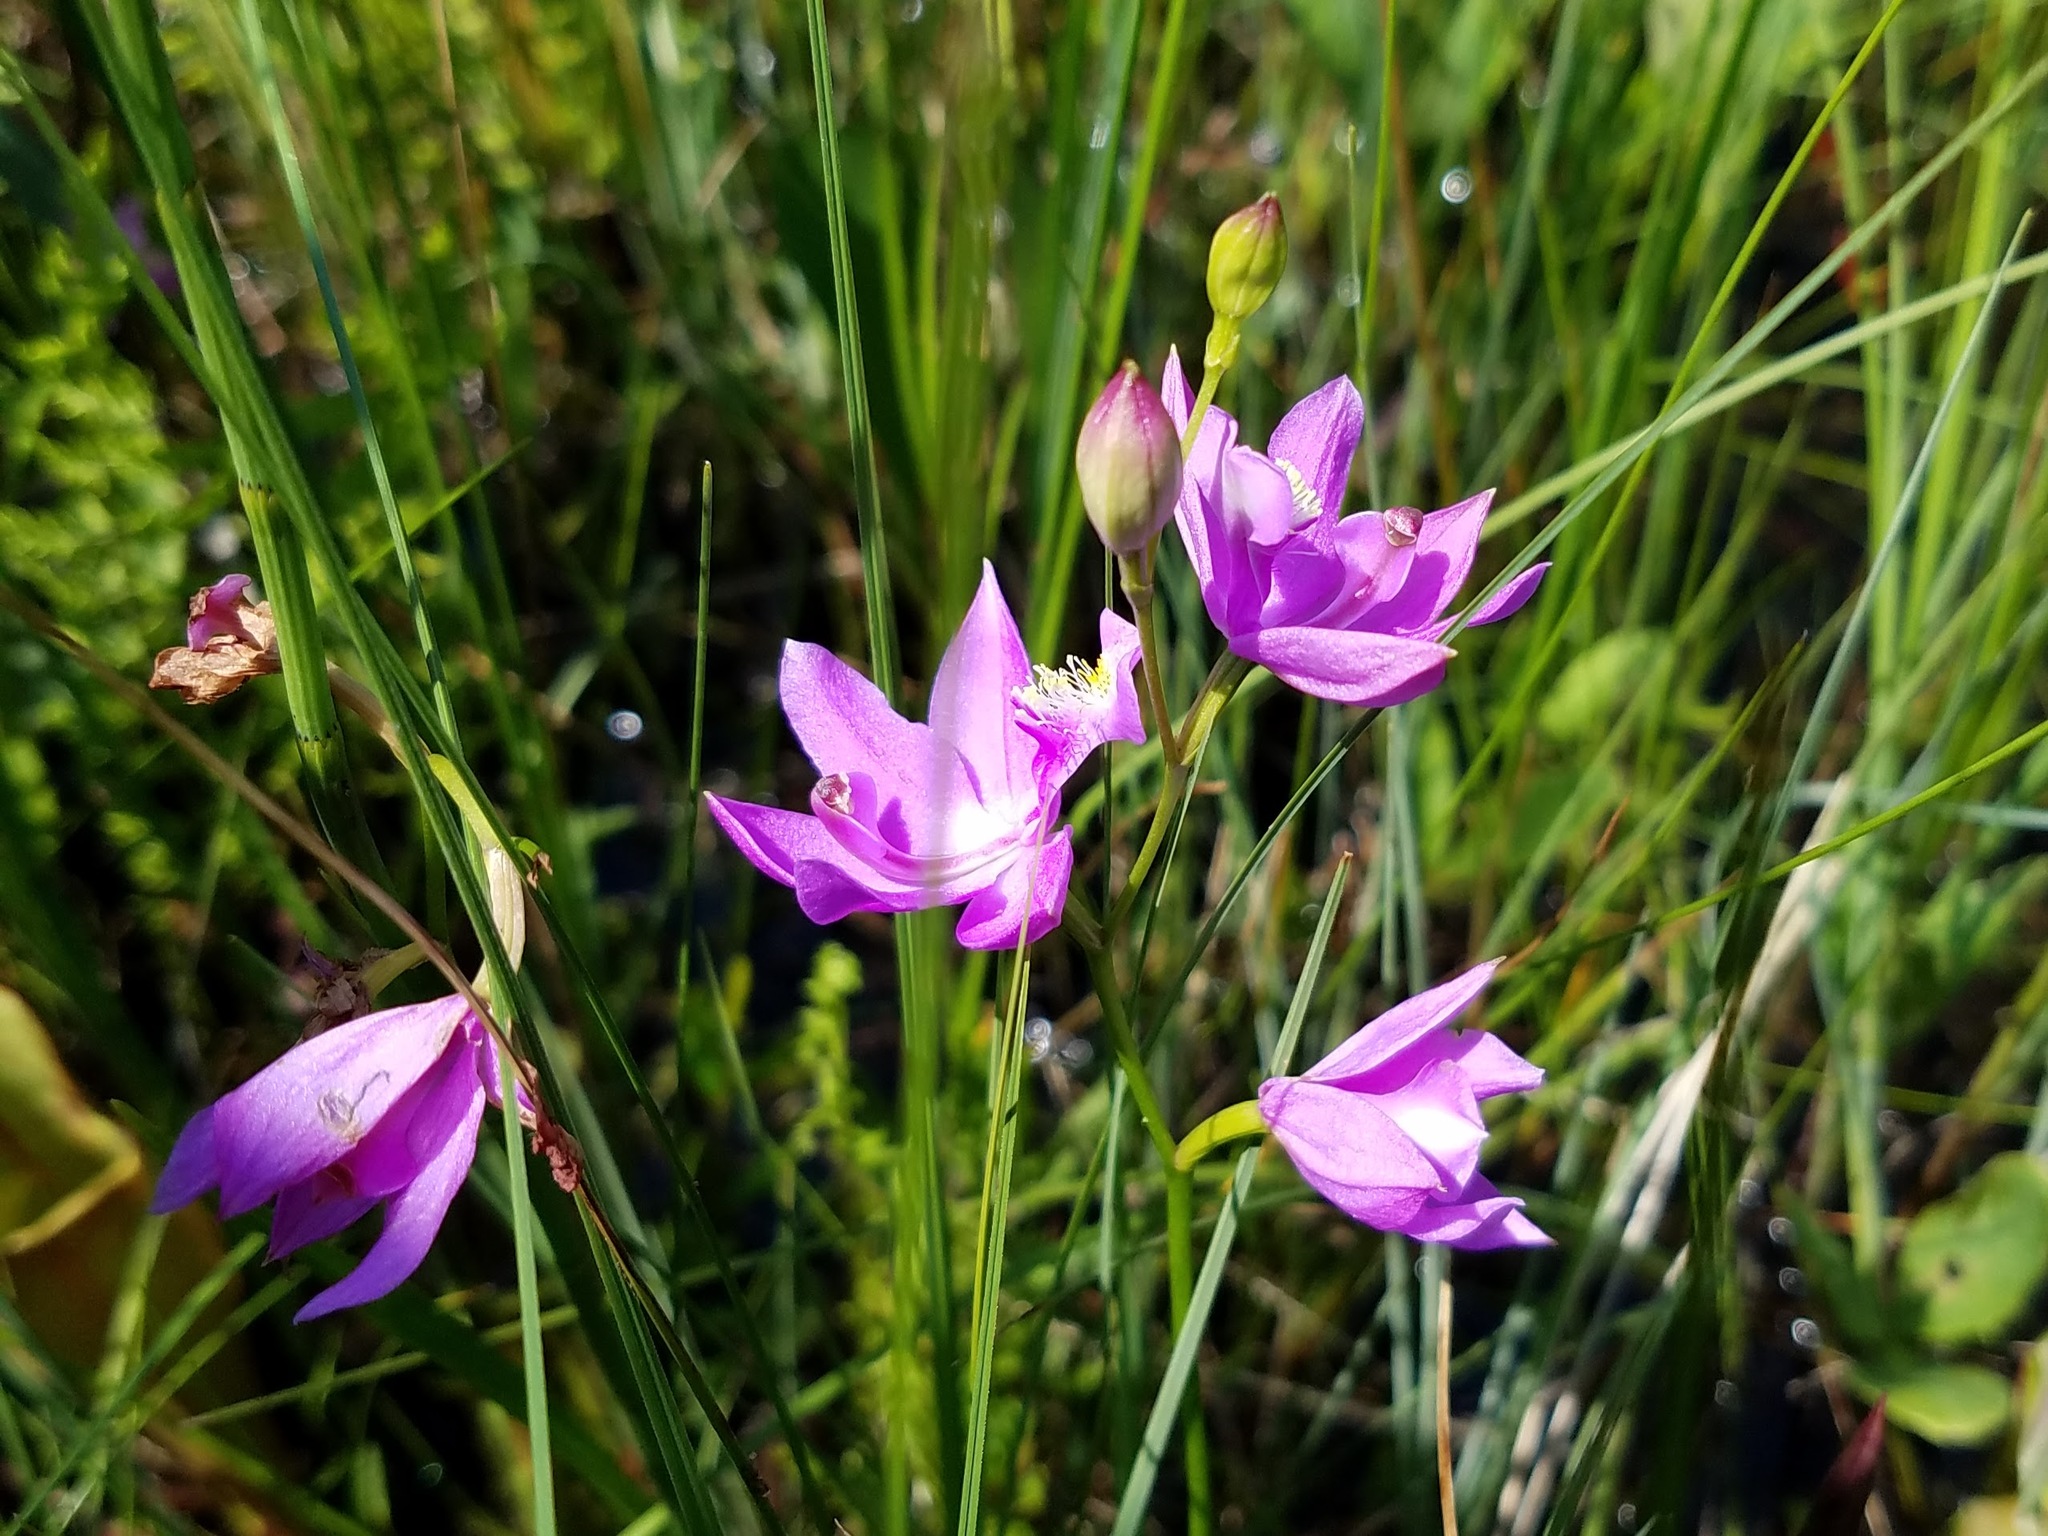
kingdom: Plantae
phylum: Tracheophyta
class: Liliopsida
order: Asparagales
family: Orchidaceae
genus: Calopogon
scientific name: Calopogon tuberosus
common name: Grass-pink
